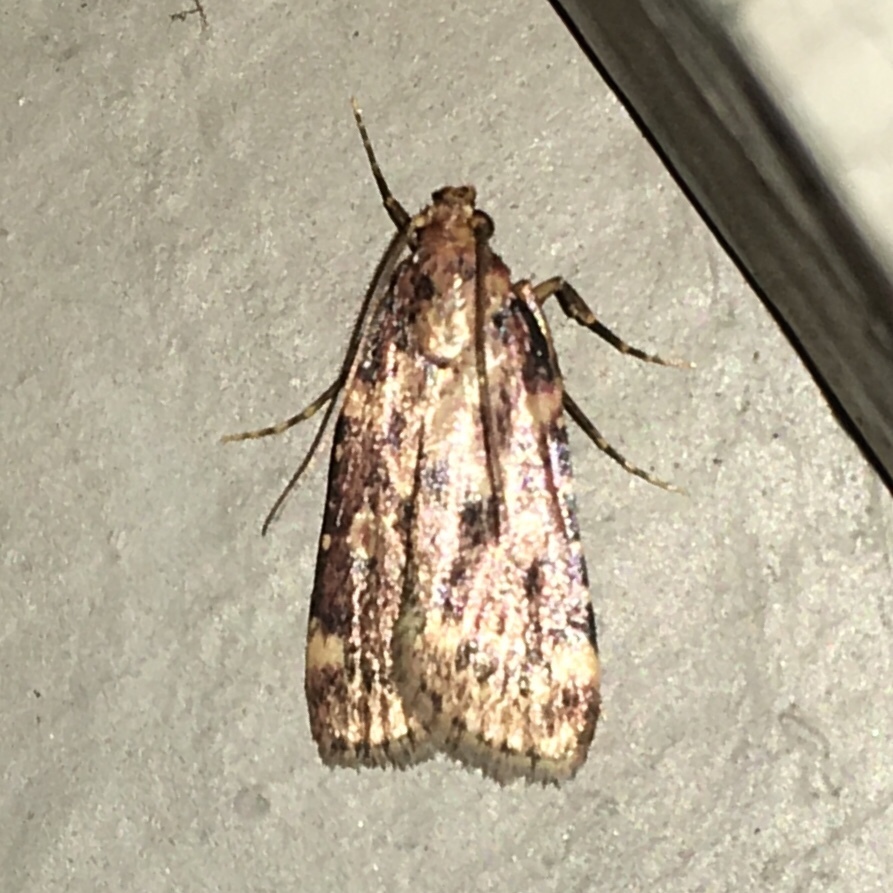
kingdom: Animalia
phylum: Arthropoda
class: Insecta
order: Lepidoptera
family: Pyralidae
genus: Aglossa
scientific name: Aglossa cuprina
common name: Grease moth
